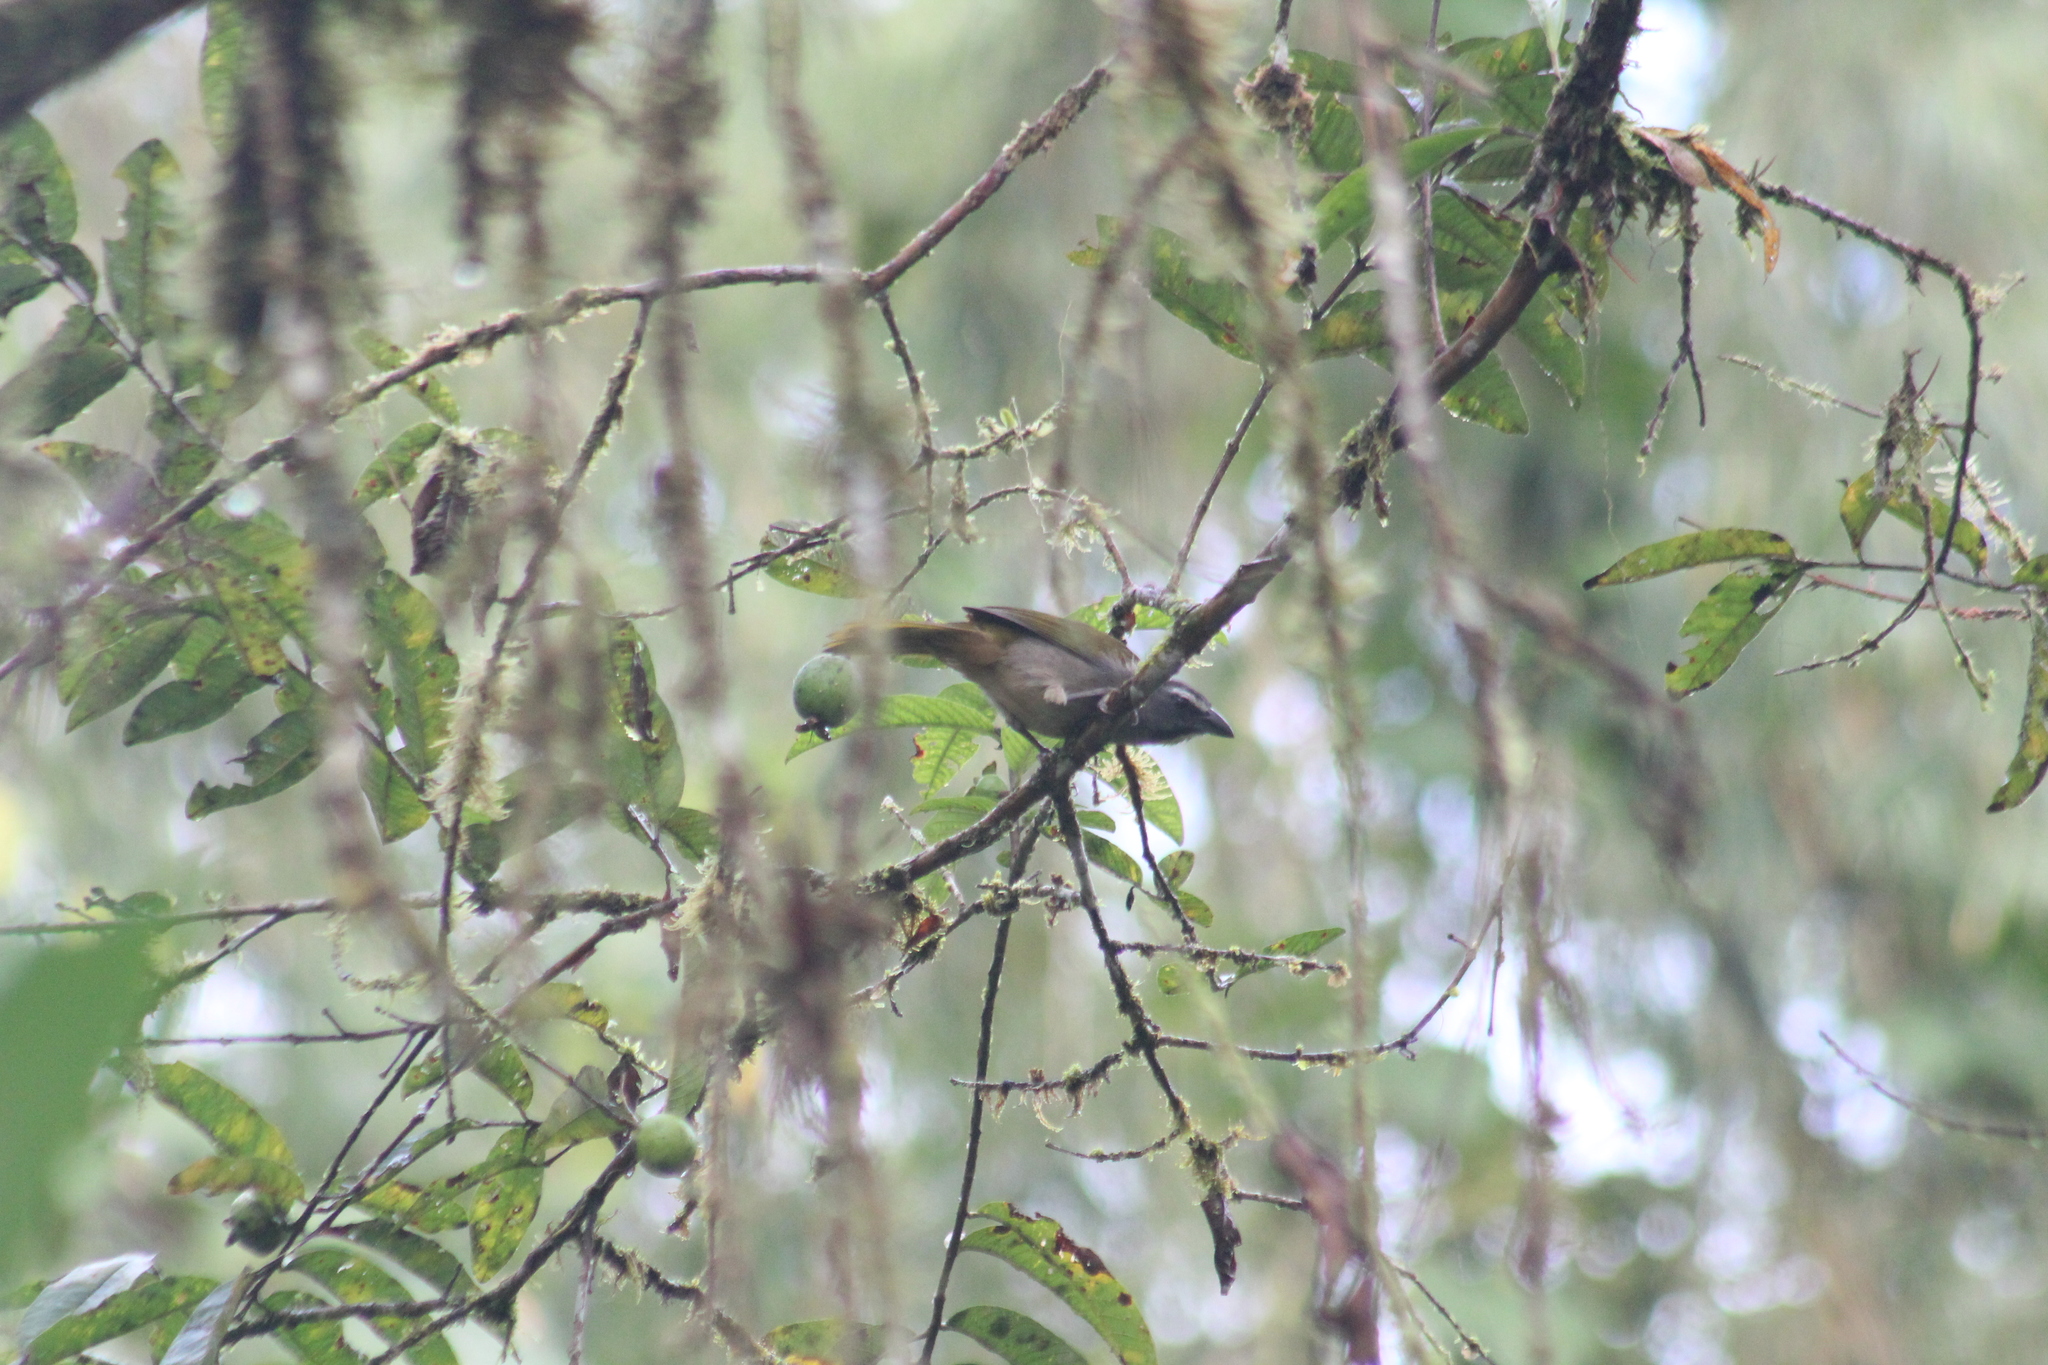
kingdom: Animalia
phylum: Chordata
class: Aves
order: Passeriformes
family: Thraupidae
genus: Saltator
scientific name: Saltator maximus
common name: Buff-throated saltator
